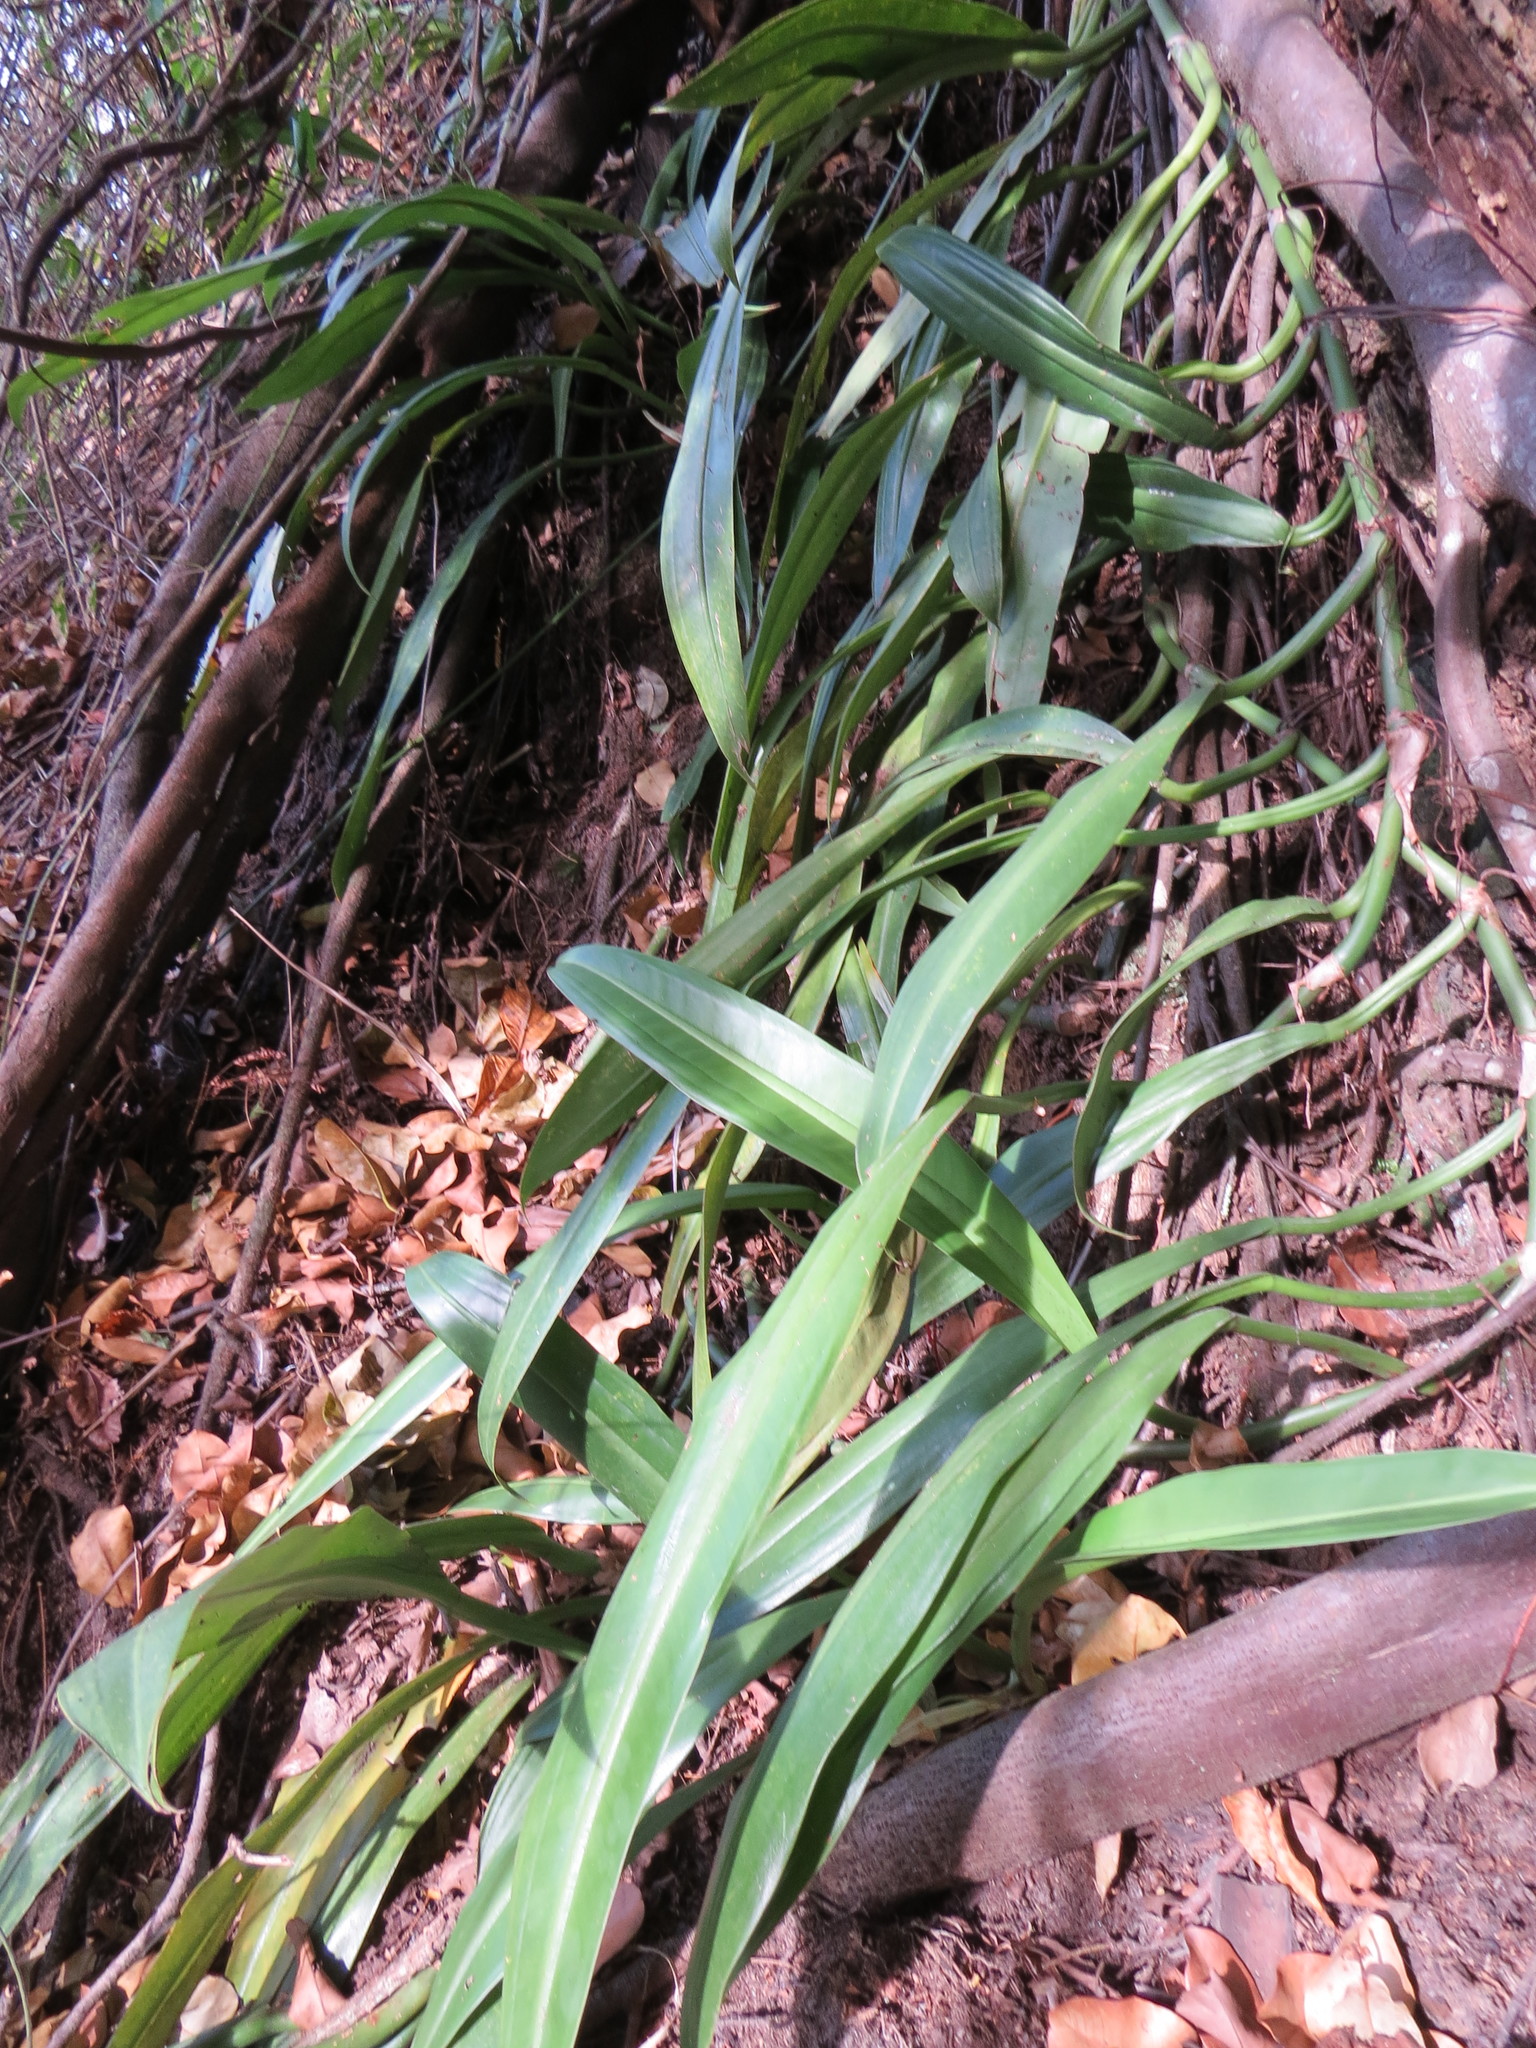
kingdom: Plantae
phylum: Tracheophyta
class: Liliopsida
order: Alismatales
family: Araceae
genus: Philodendron
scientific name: Philodendron crassinervium
